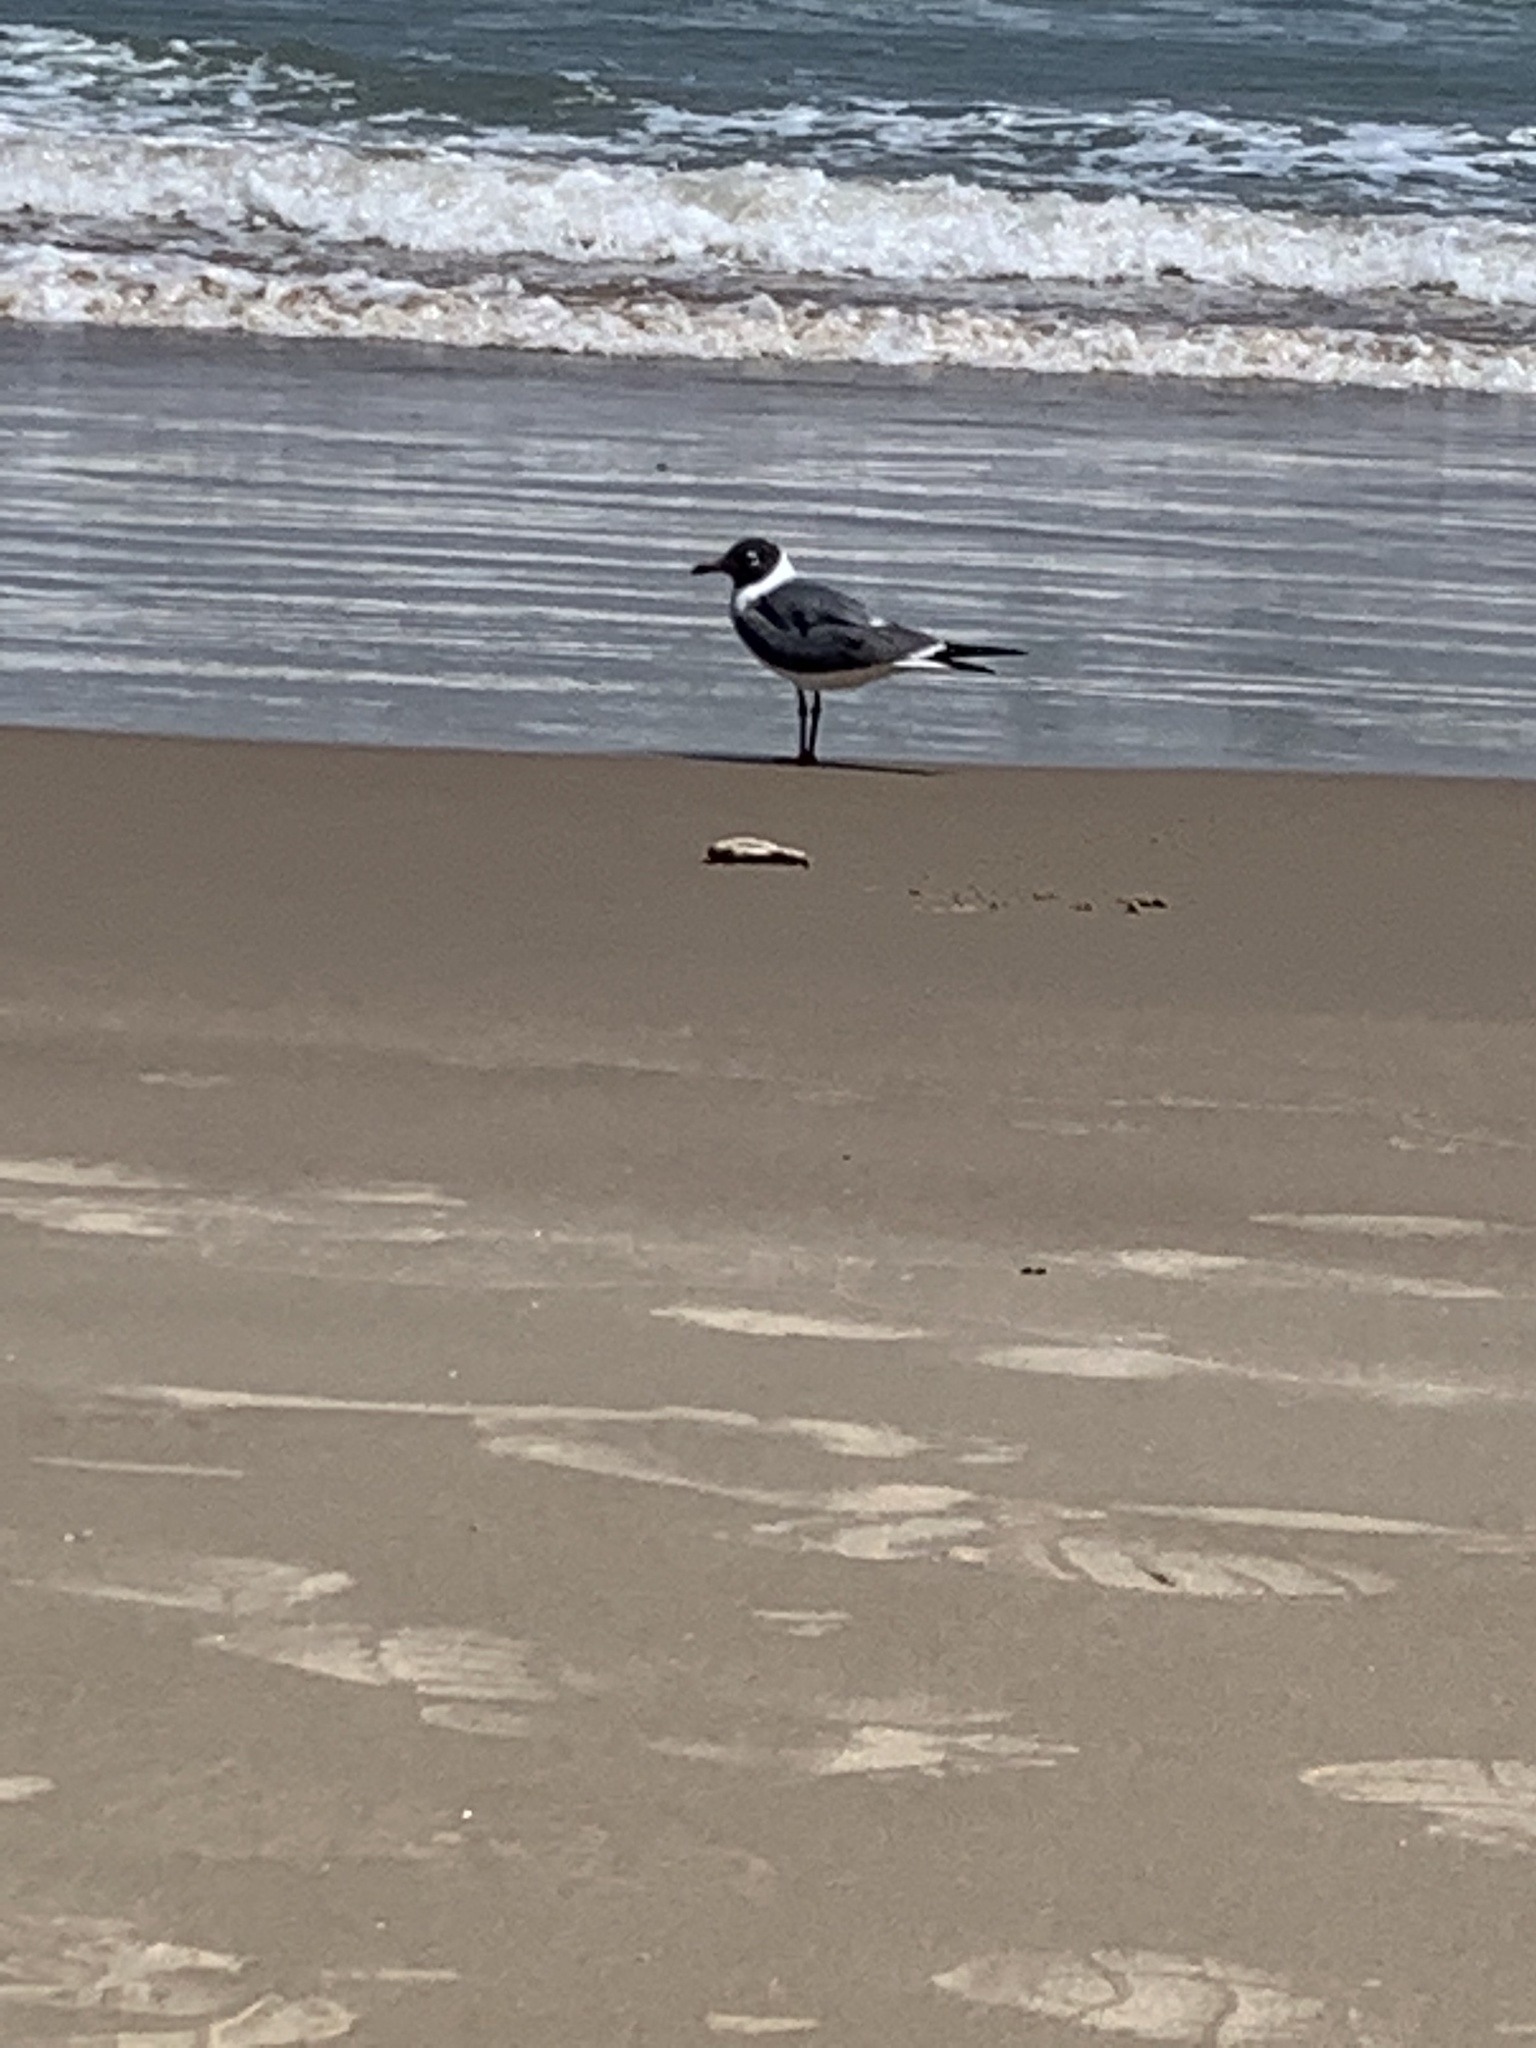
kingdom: Animalia
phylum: Chordata
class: Aves
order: Charadriiformes
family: Laridae
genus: Leucophaeus
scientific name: Leucophaeus atricilla
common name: Laughing gull
